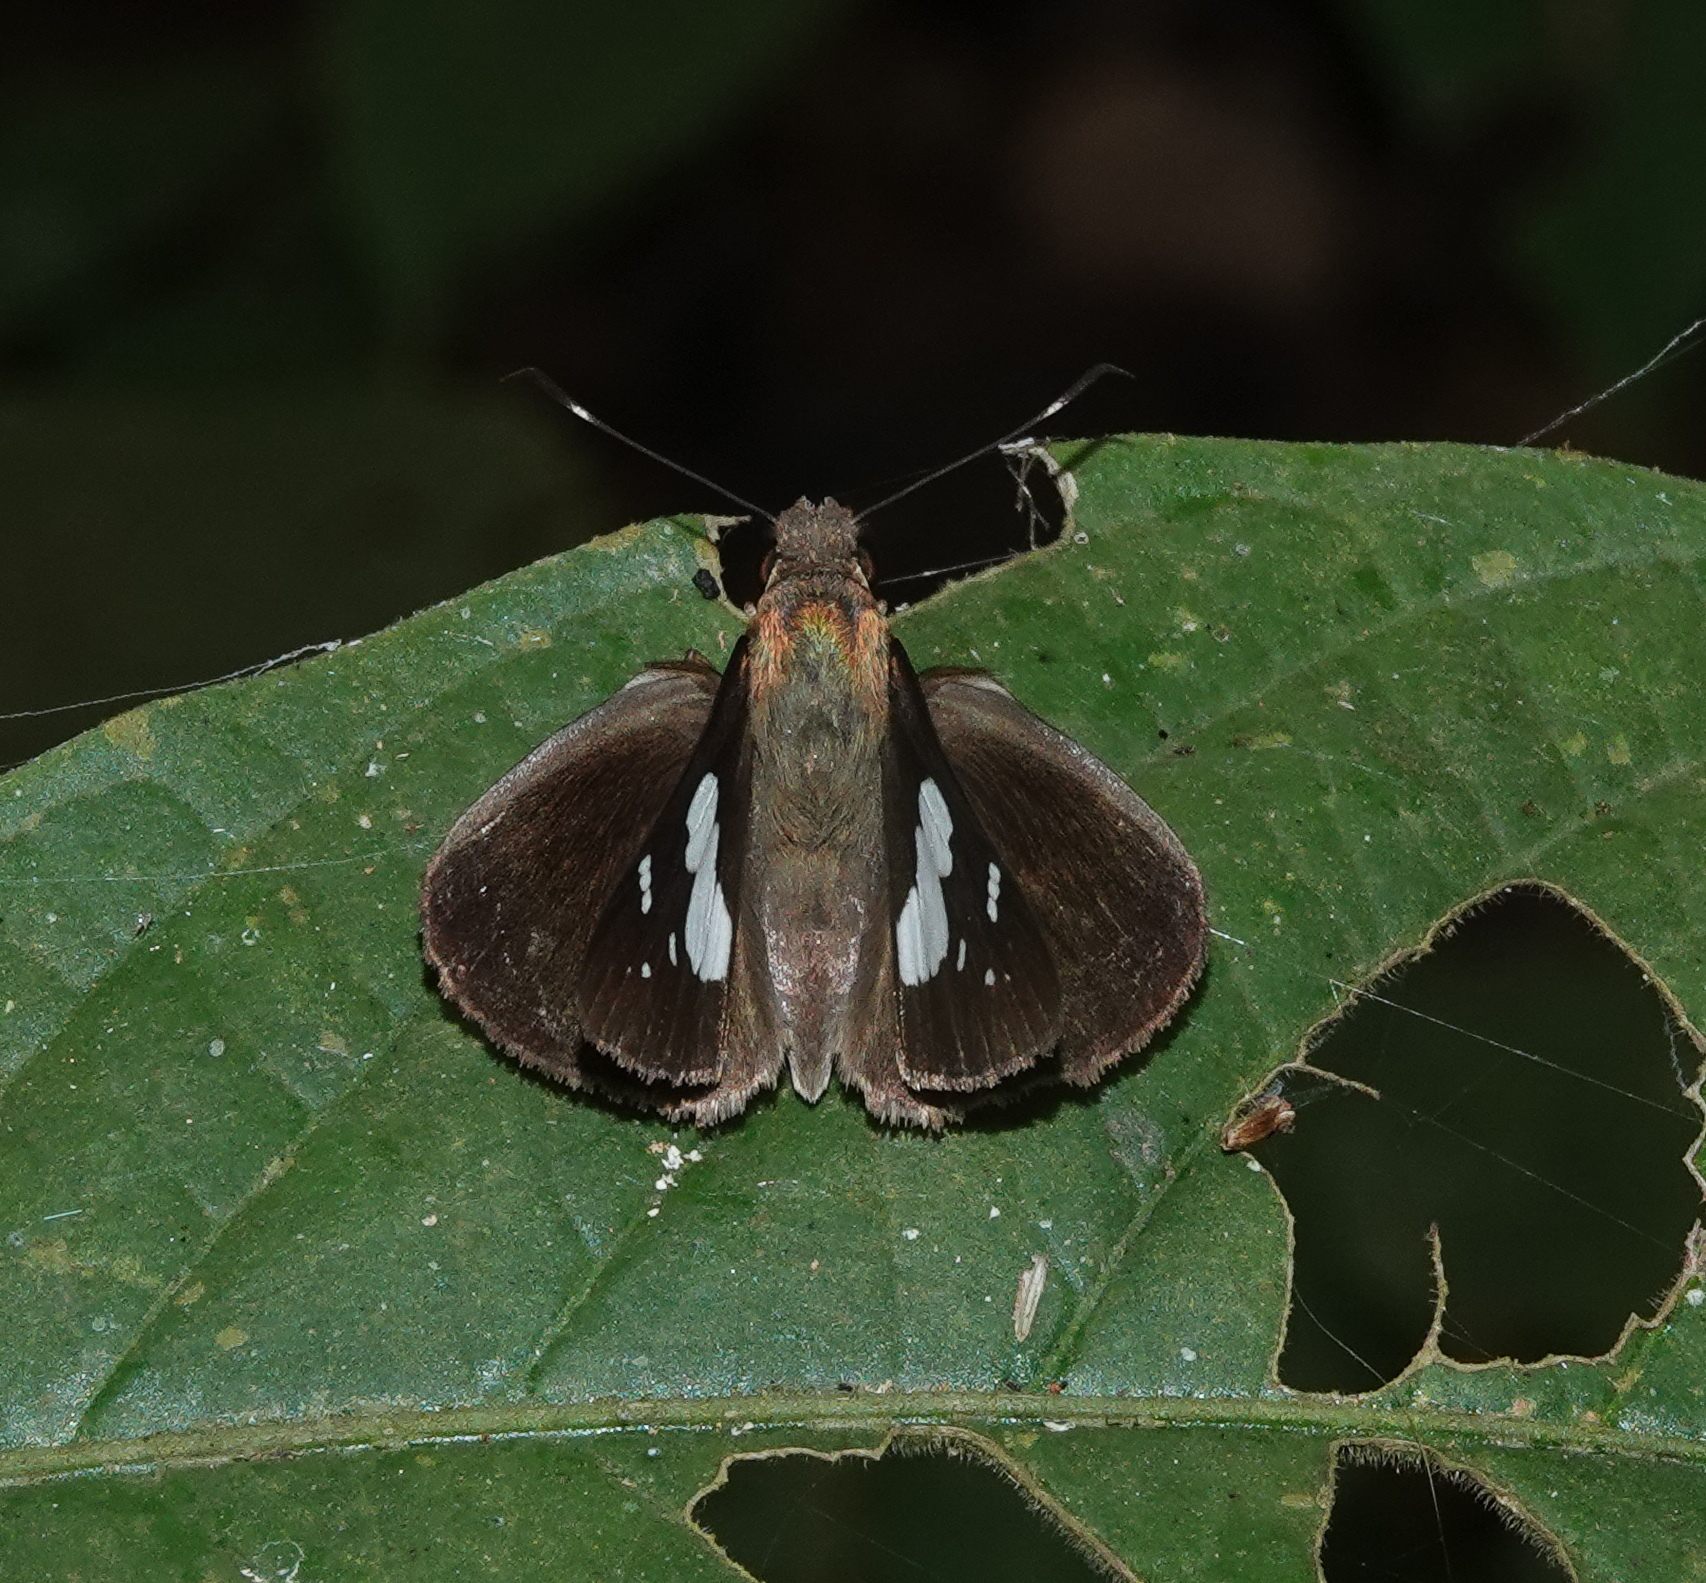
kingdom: Animalia
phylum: Arthropoda
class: Insecta
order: Lepidoptera
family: Hesperiidae
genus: Notocrypta
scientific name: Notocrypta curvifascia
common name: Restricted demon
